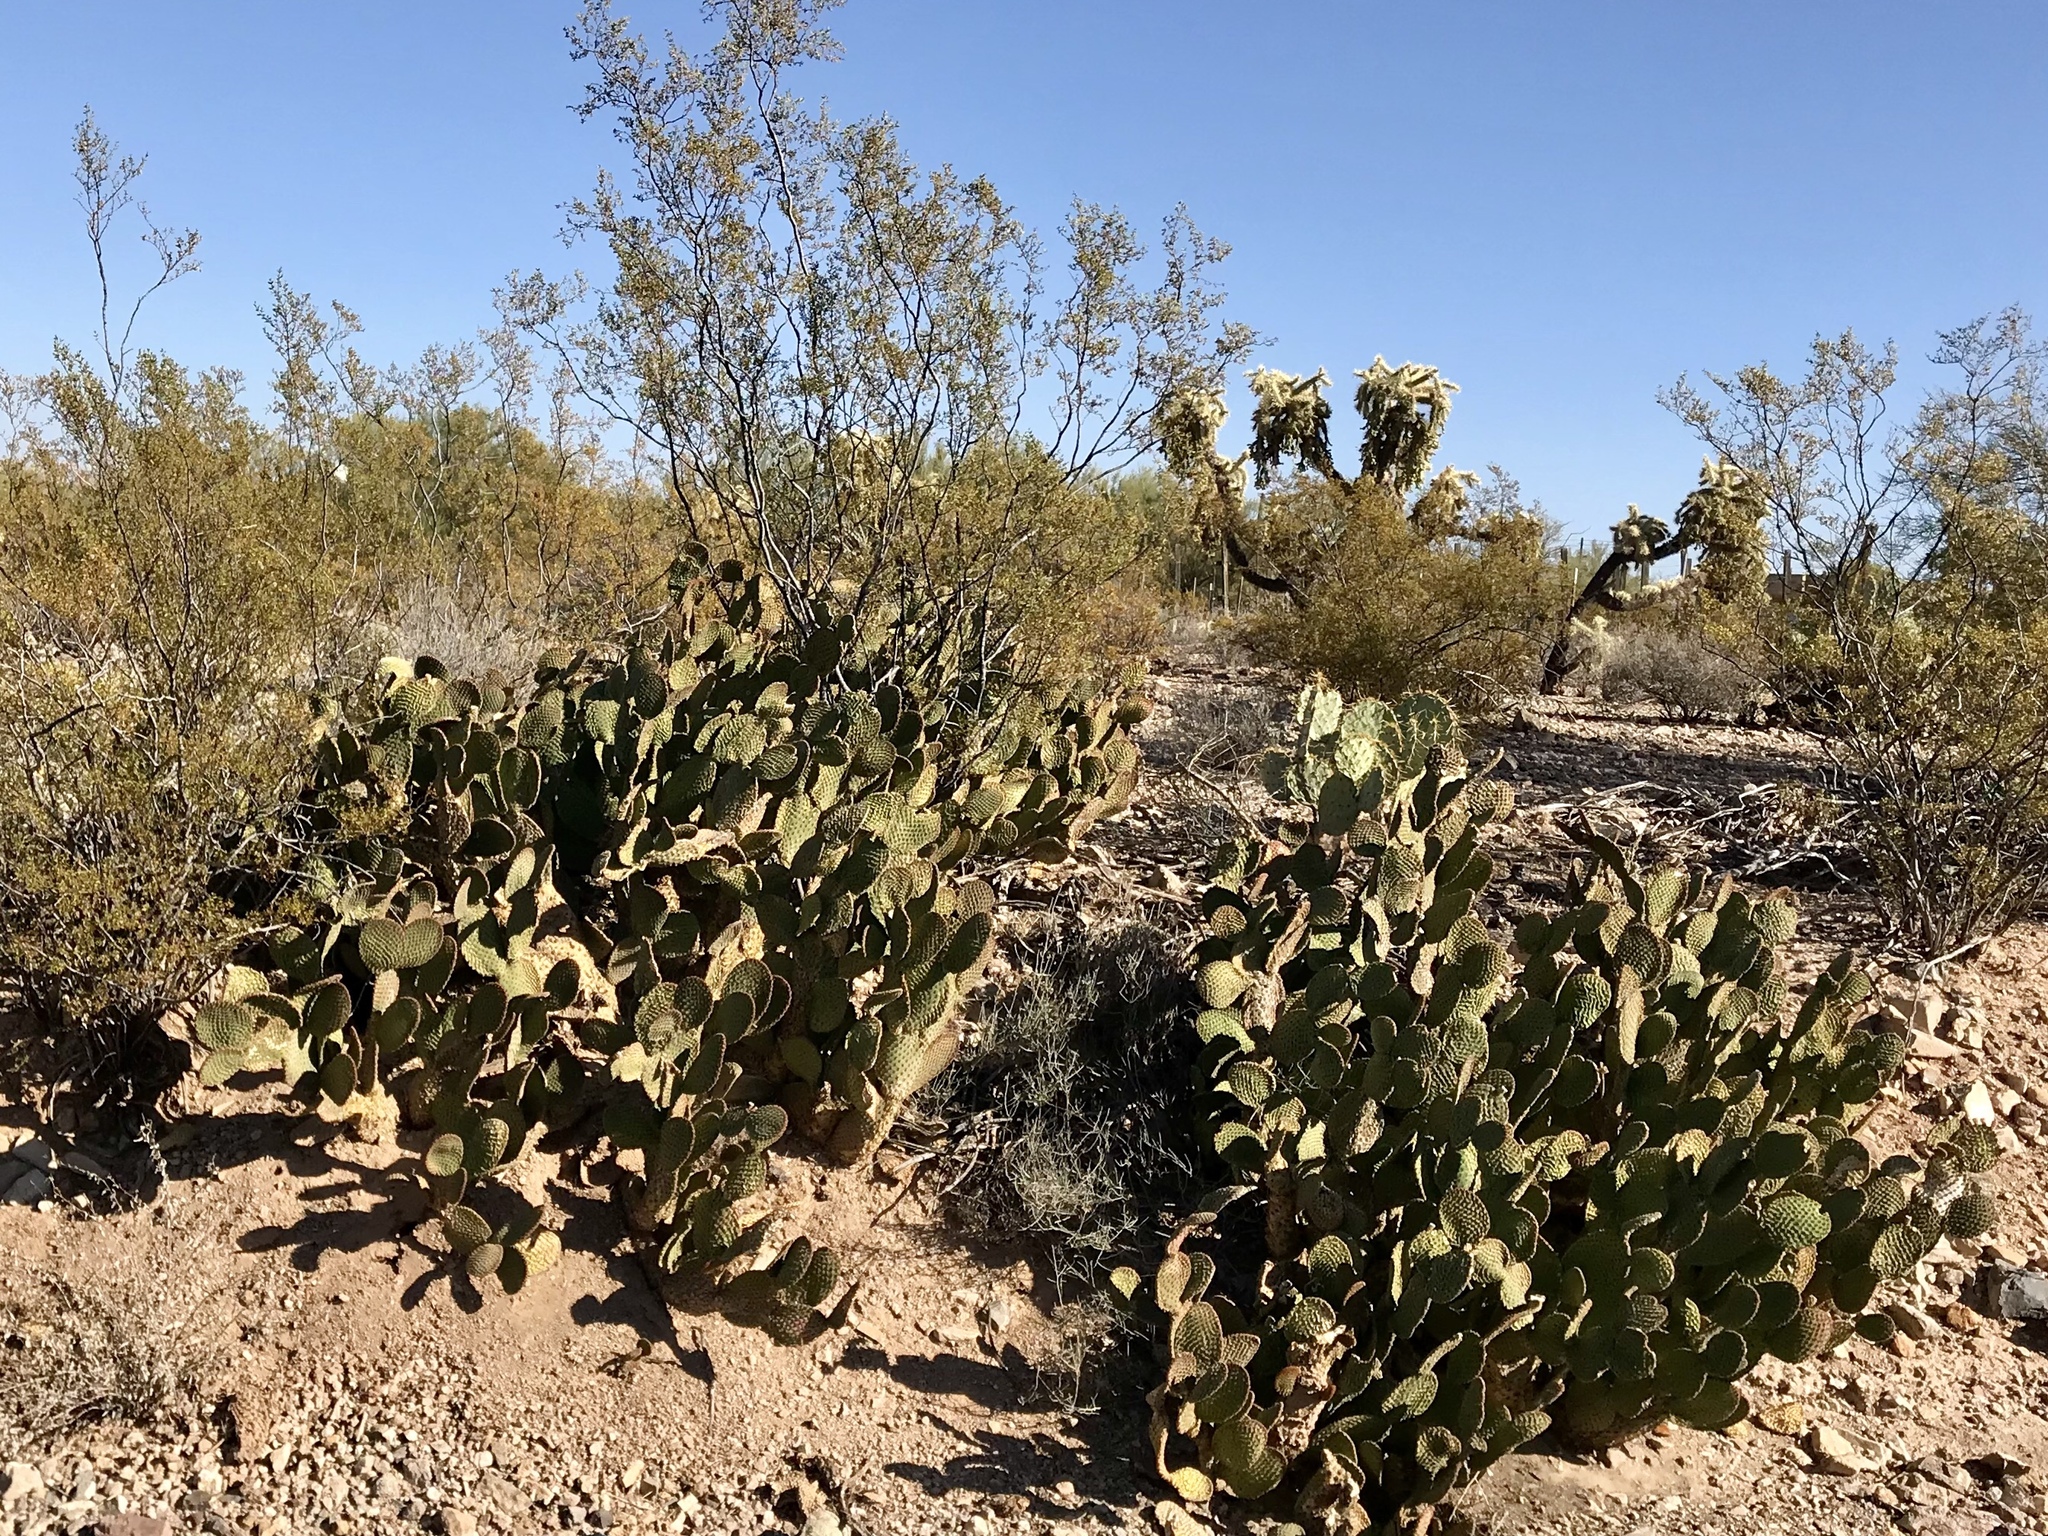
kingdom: Plantae
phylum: Tracheophyta
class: Magnoliopsida
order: Caryophyllales
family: Cactaceae
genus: Opuntia
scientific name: Opuntia microdasys
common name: Angel's-wings
